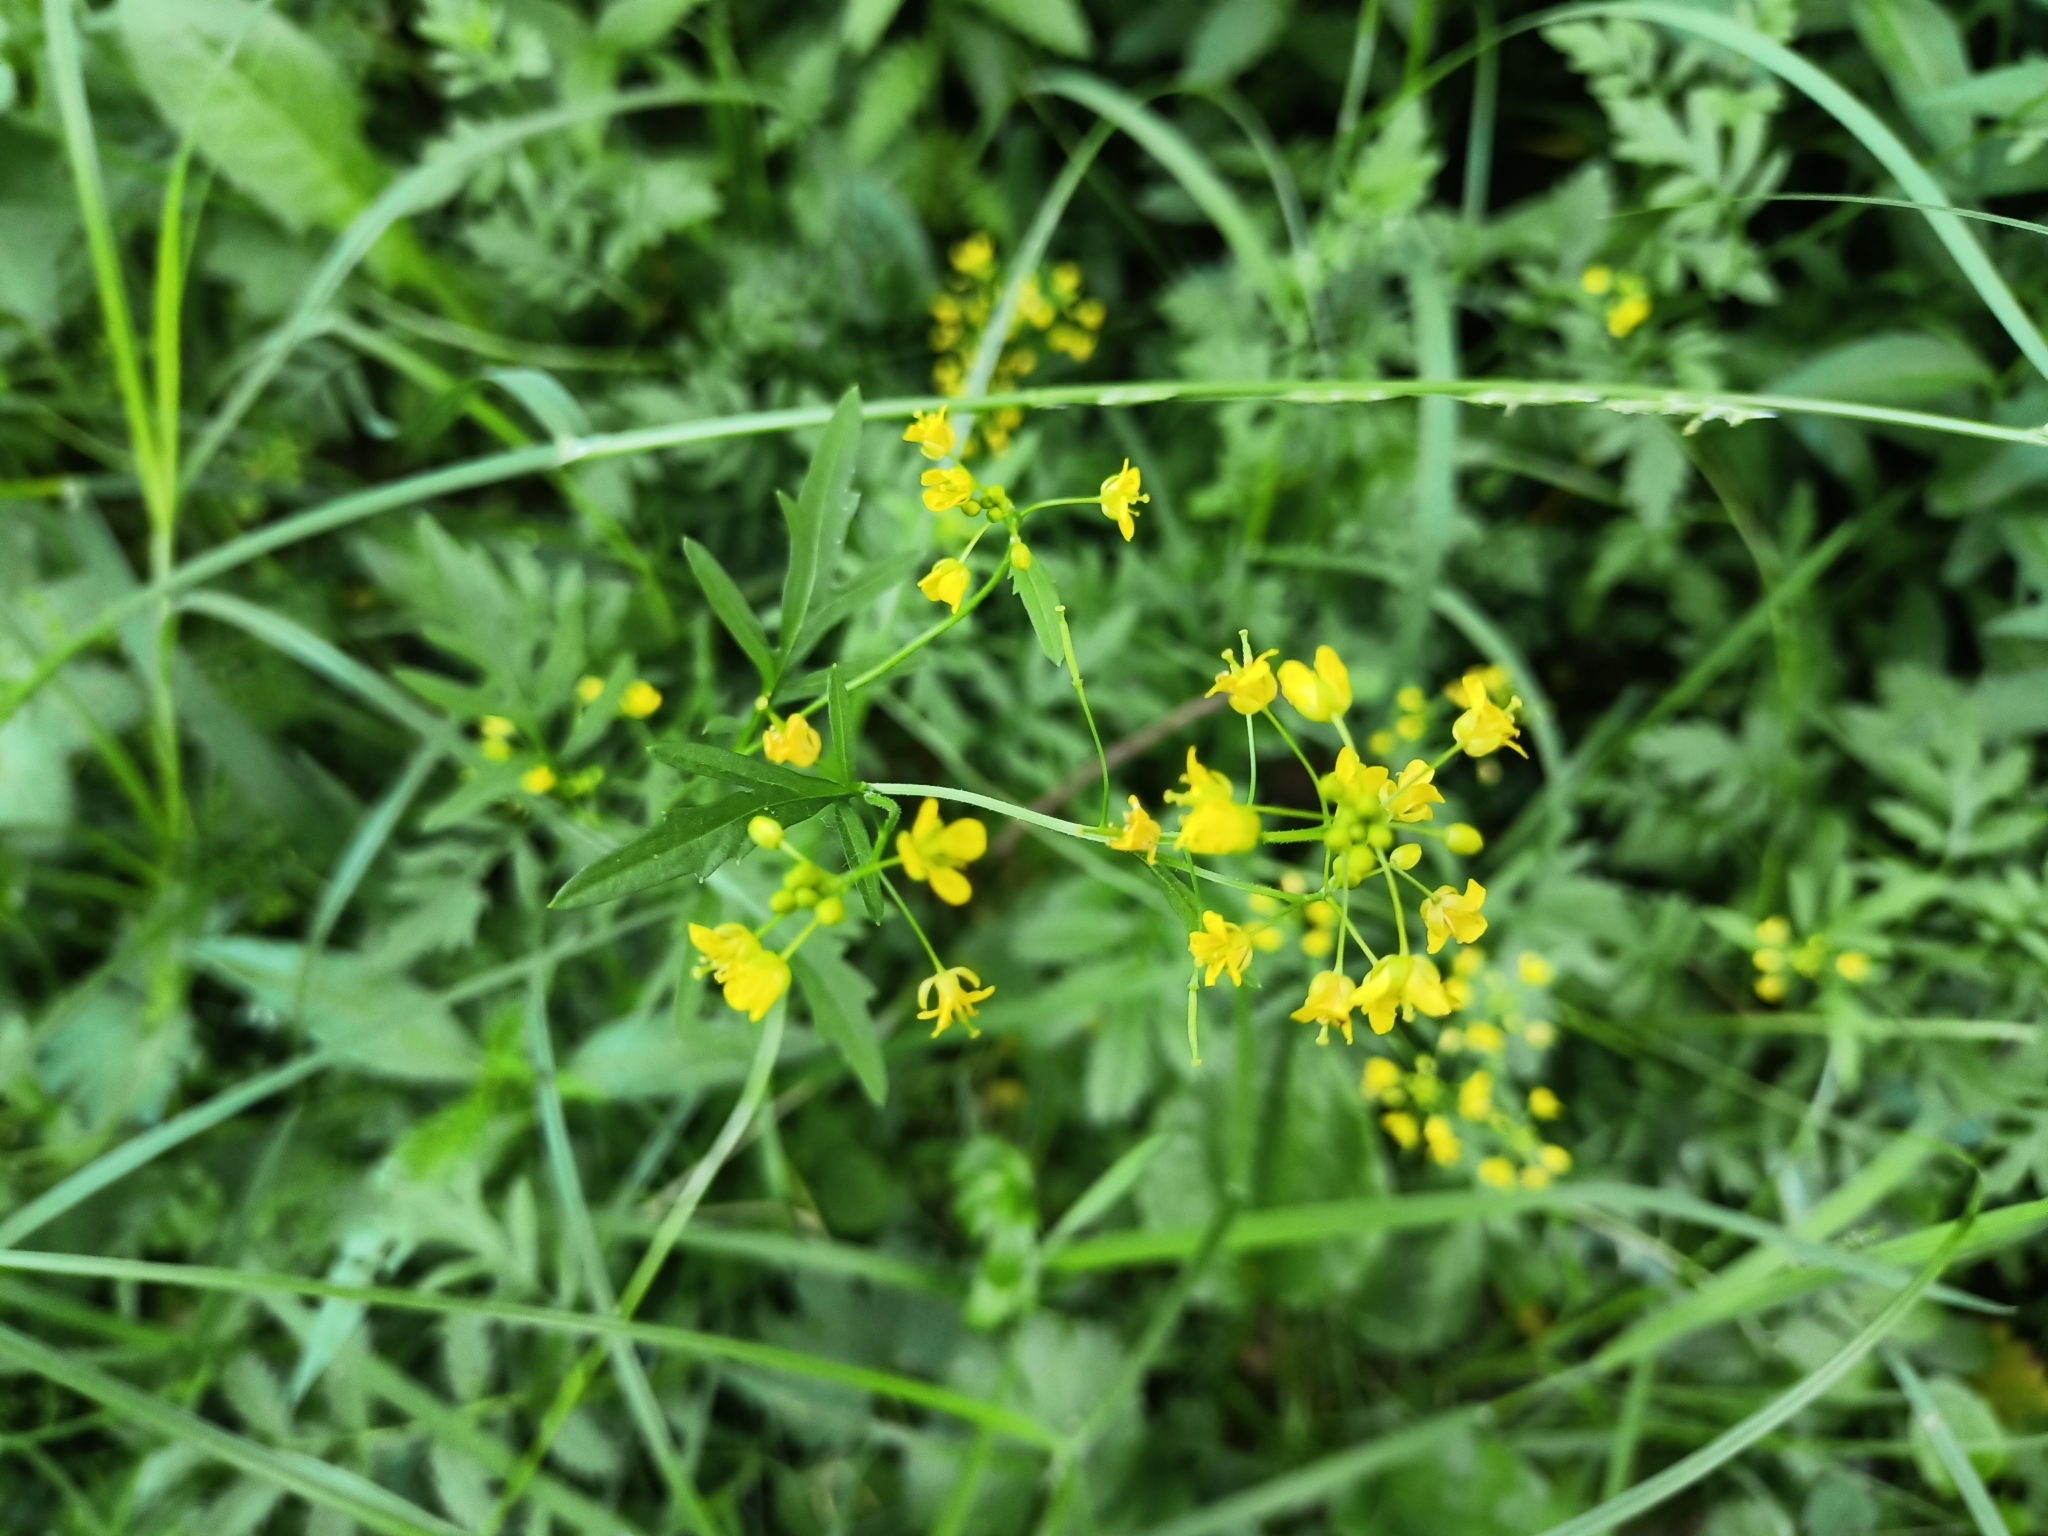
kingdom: Plantae
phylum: Tracheophyta
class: Magnoliopsida
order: Brassicales
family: Brassicaceae
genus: Rorippa
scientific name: Rorippa sylvestris
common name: Creeping yellowcress
